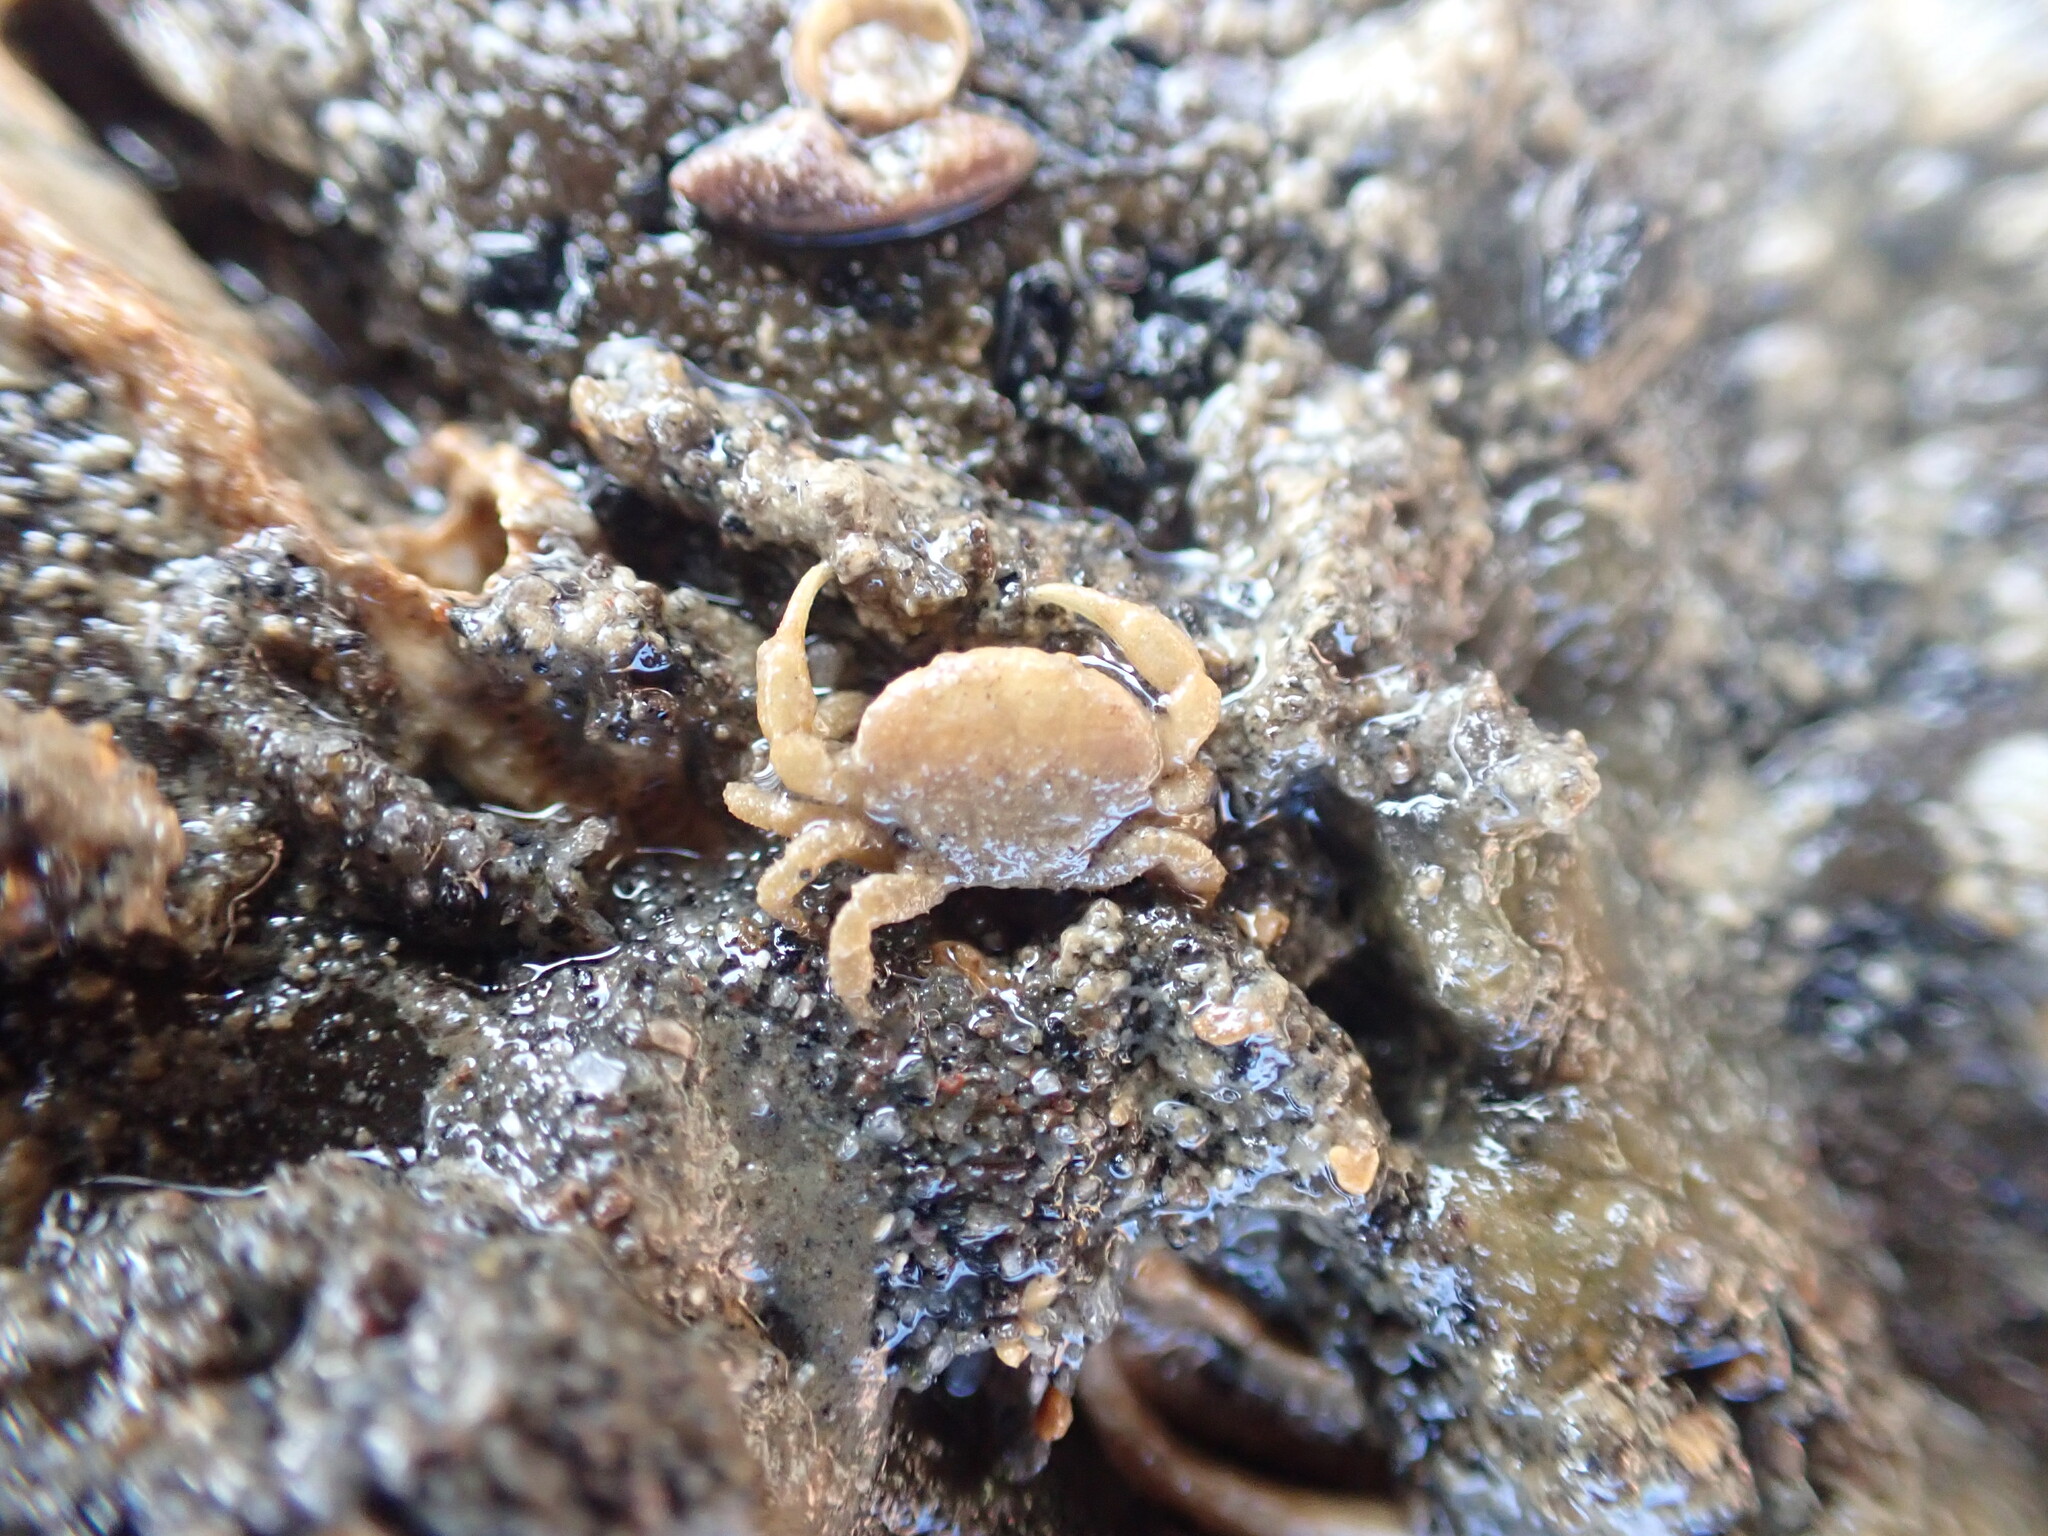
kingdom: Animalia
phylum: Arthropoda
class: Malacostraca
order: Decapoda
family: Heteroziidae
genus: Heterozius
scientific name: Heterozius rotundifrons
